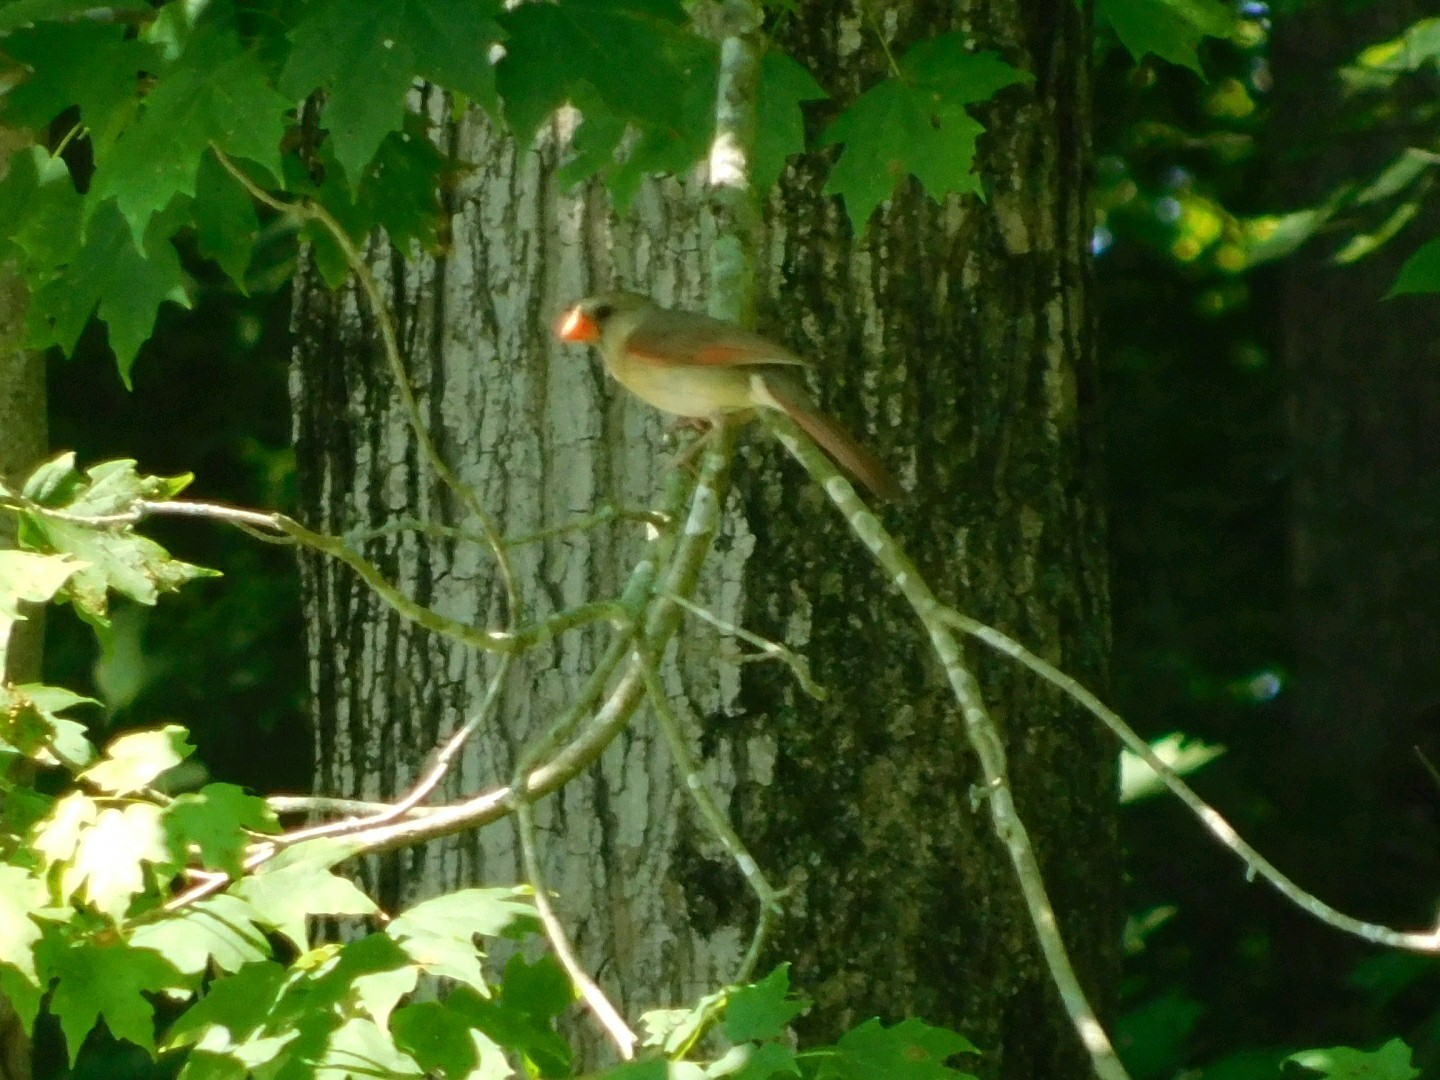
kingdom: Animalia
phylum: Chordata
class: Aves
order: Passeriformes
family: Cardinalidae
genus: Cardinalis
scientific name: Cardinalis cardinalis
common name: Northern cardinal
